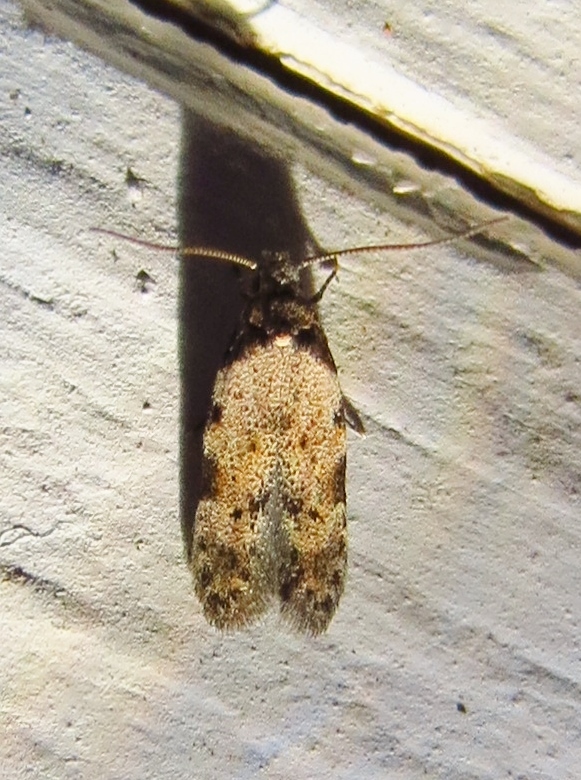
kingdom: Animalia
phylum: Arthropoda
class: Insecta
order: Lepidoptera
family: Autostichidae
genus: Taygete
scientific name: Taygete attributella
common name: Triangle-marked twirler moth
